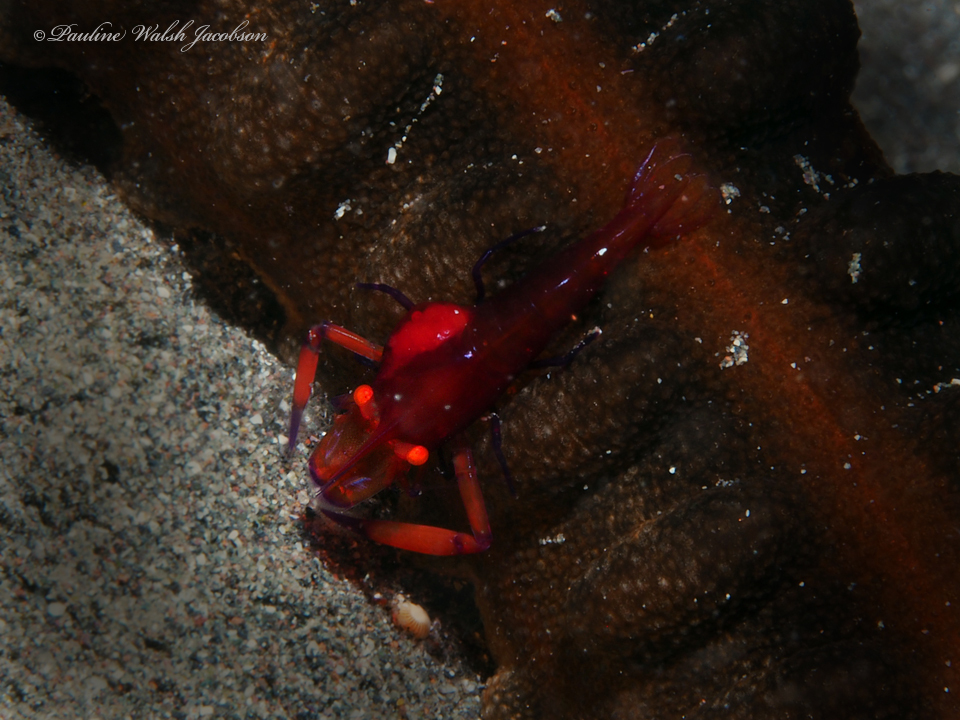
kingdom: Animalia
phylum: Arthropoda
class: Malacostraca
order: Decapoda
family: Palaemonidae
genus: Periclimenes
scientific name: Periclimenes rex
